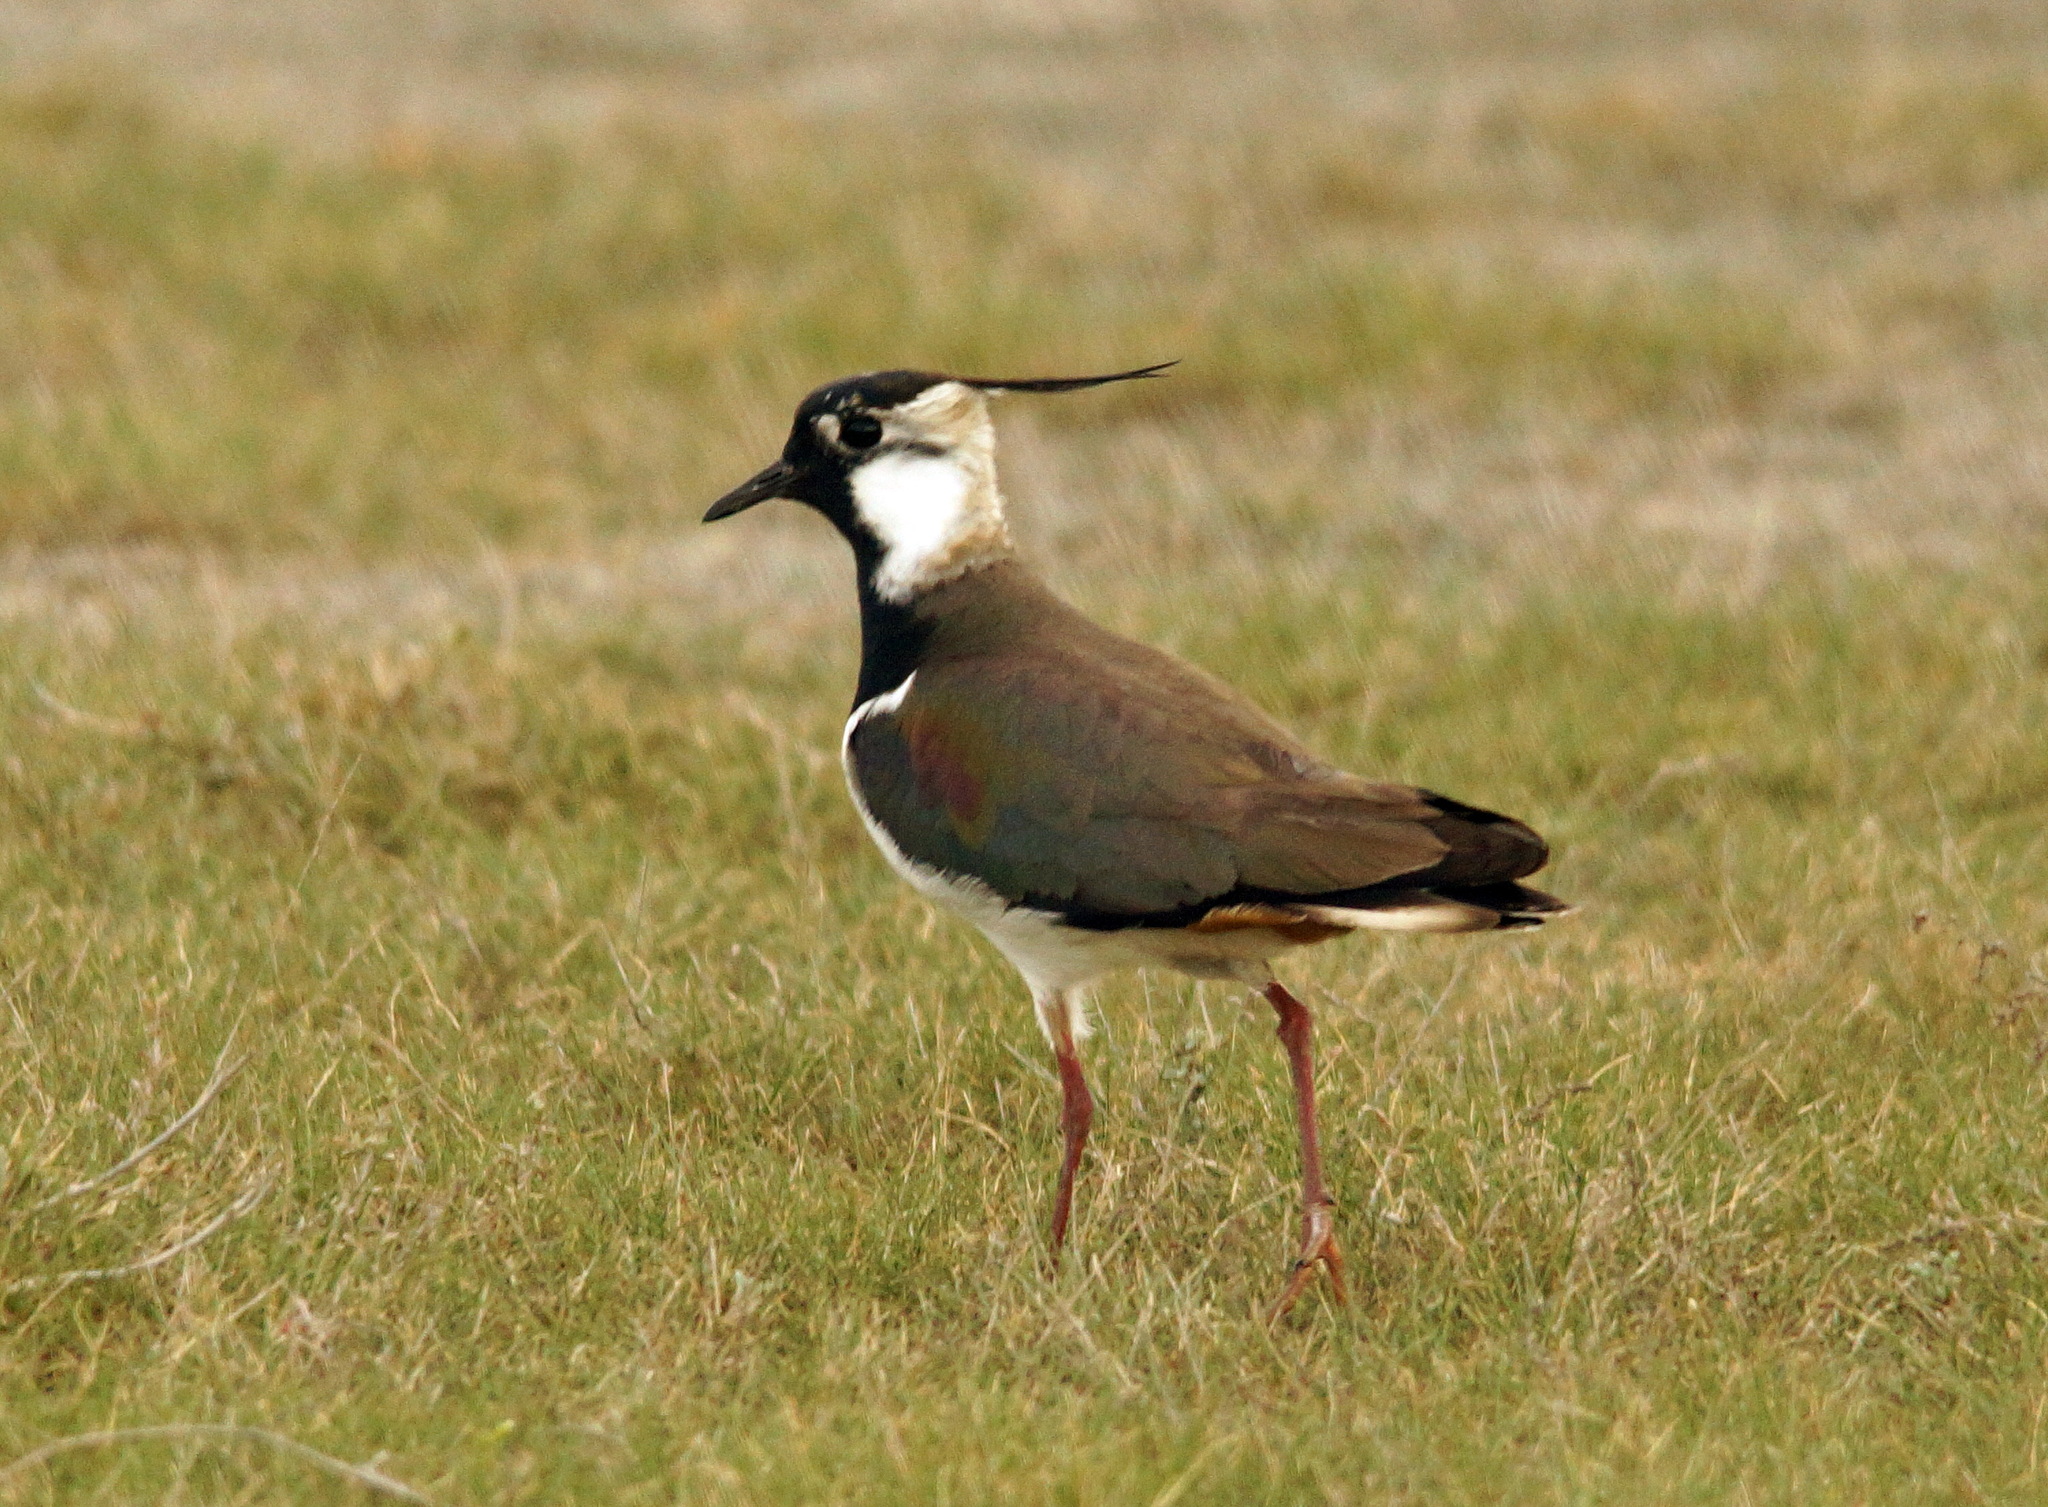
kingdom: Animalia
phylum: Chordata
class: Aves
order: Charadriiformes
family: Charadriidae
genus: Vanellus
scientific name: Vanellus vanellus
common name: Northern lapwing
